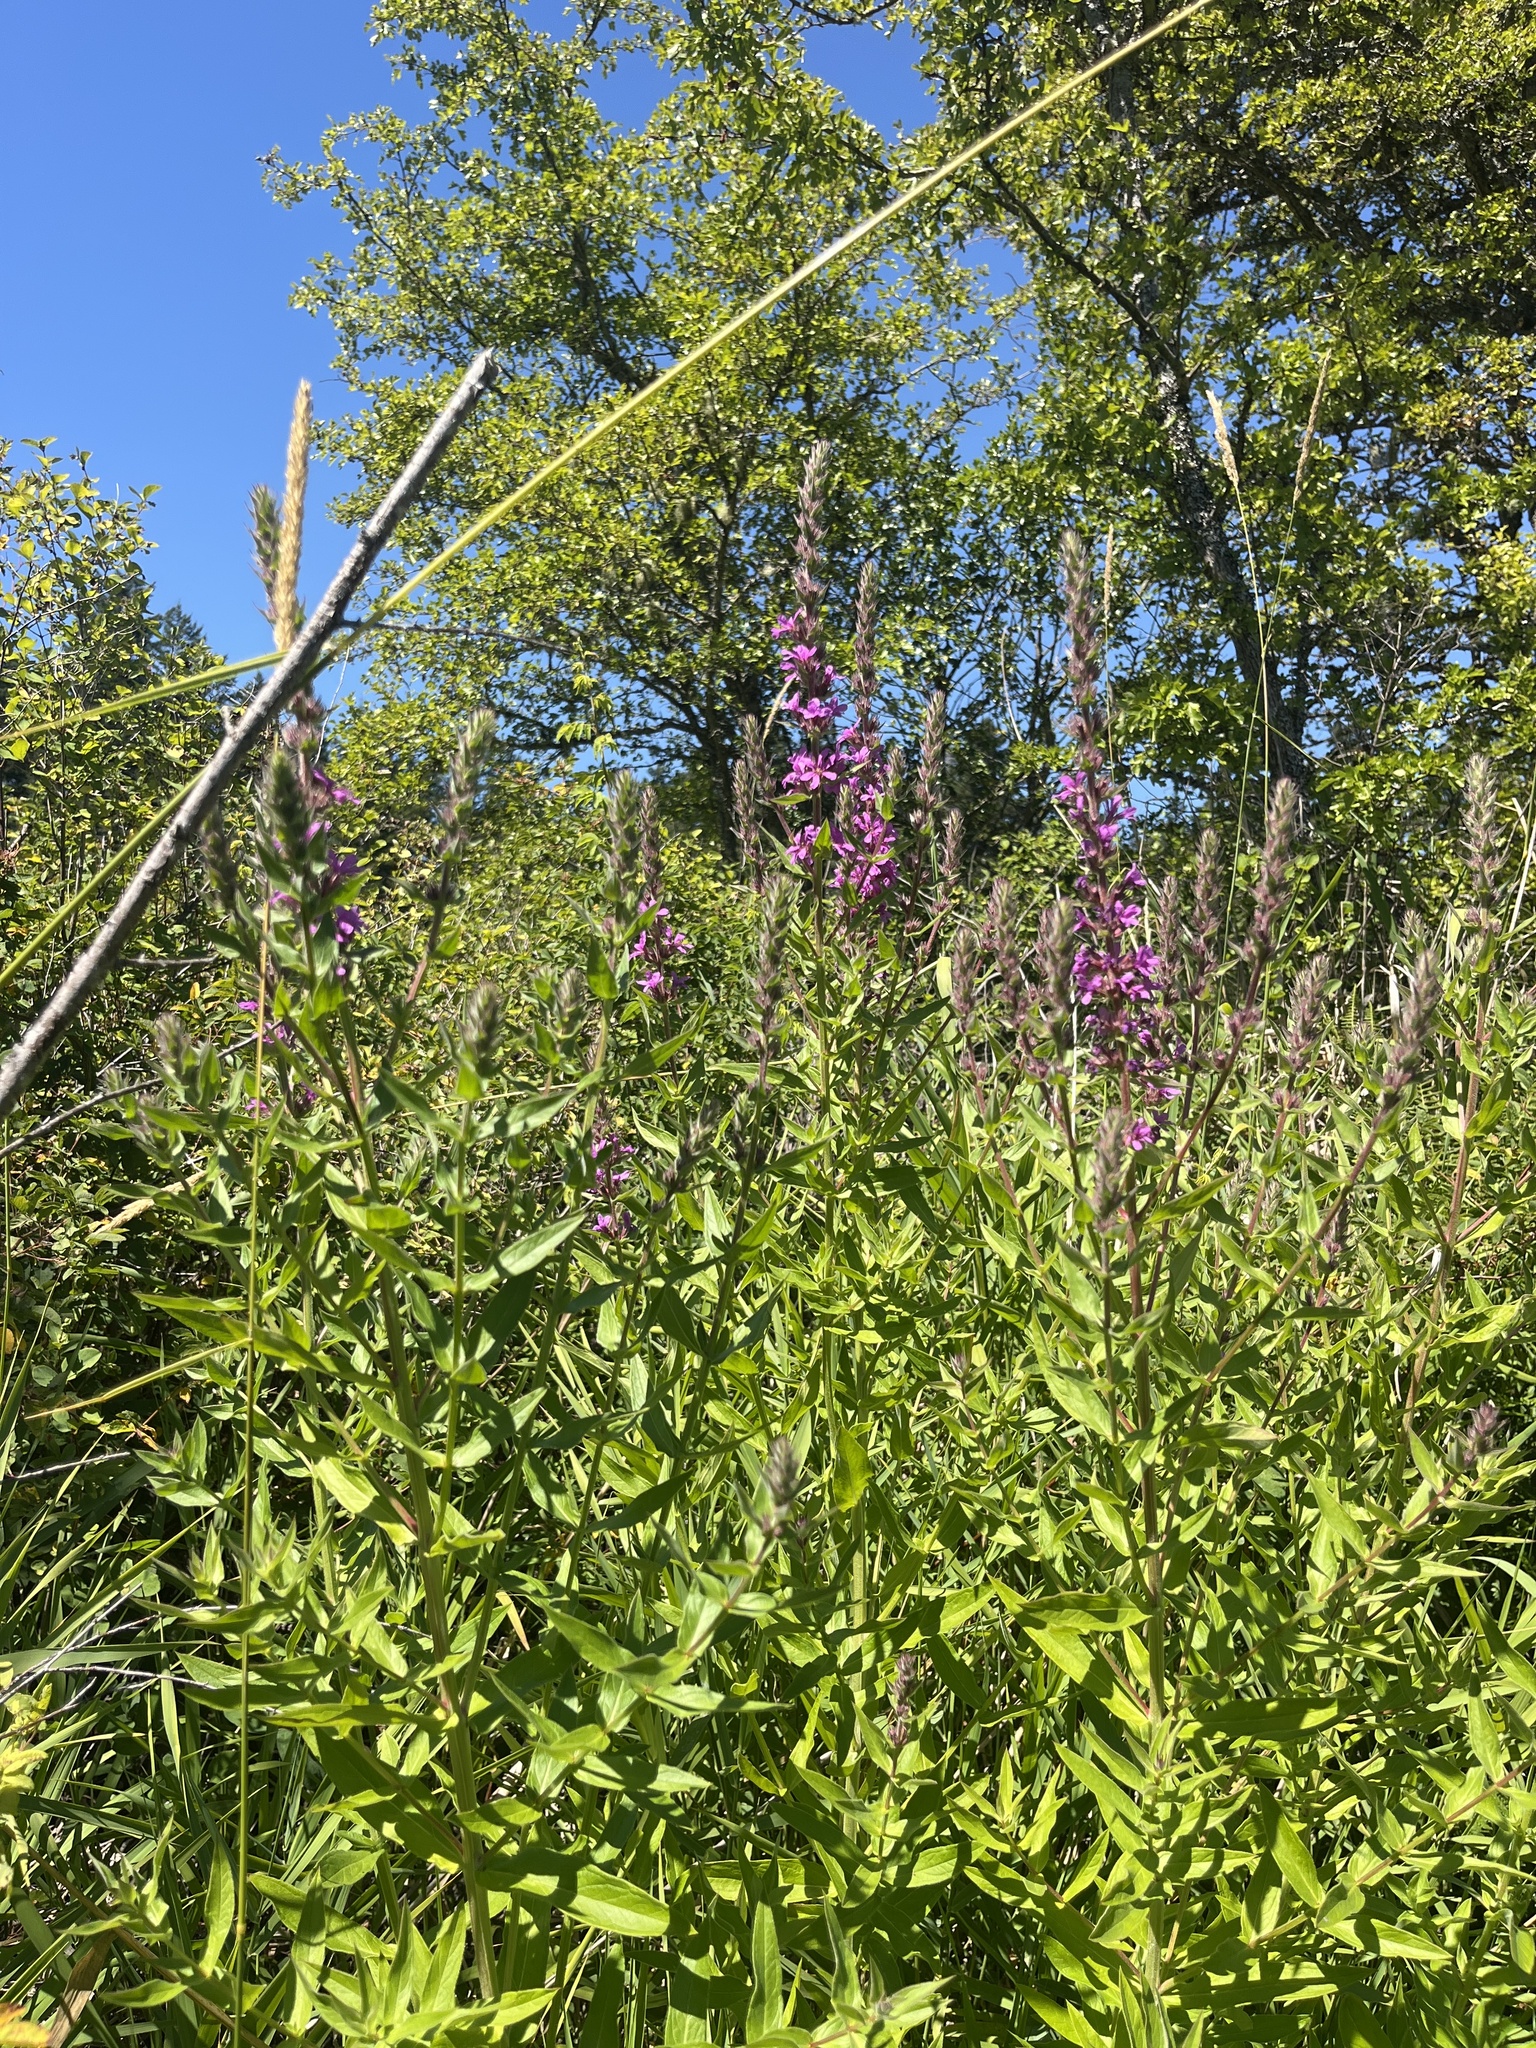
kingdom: Plantae
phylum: Tracheophyta
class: Magnoliopsida
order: Myrtales
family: Lythraceae
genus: Lythrum
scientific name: Lythrum salicaria
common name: Purple loosestrife
